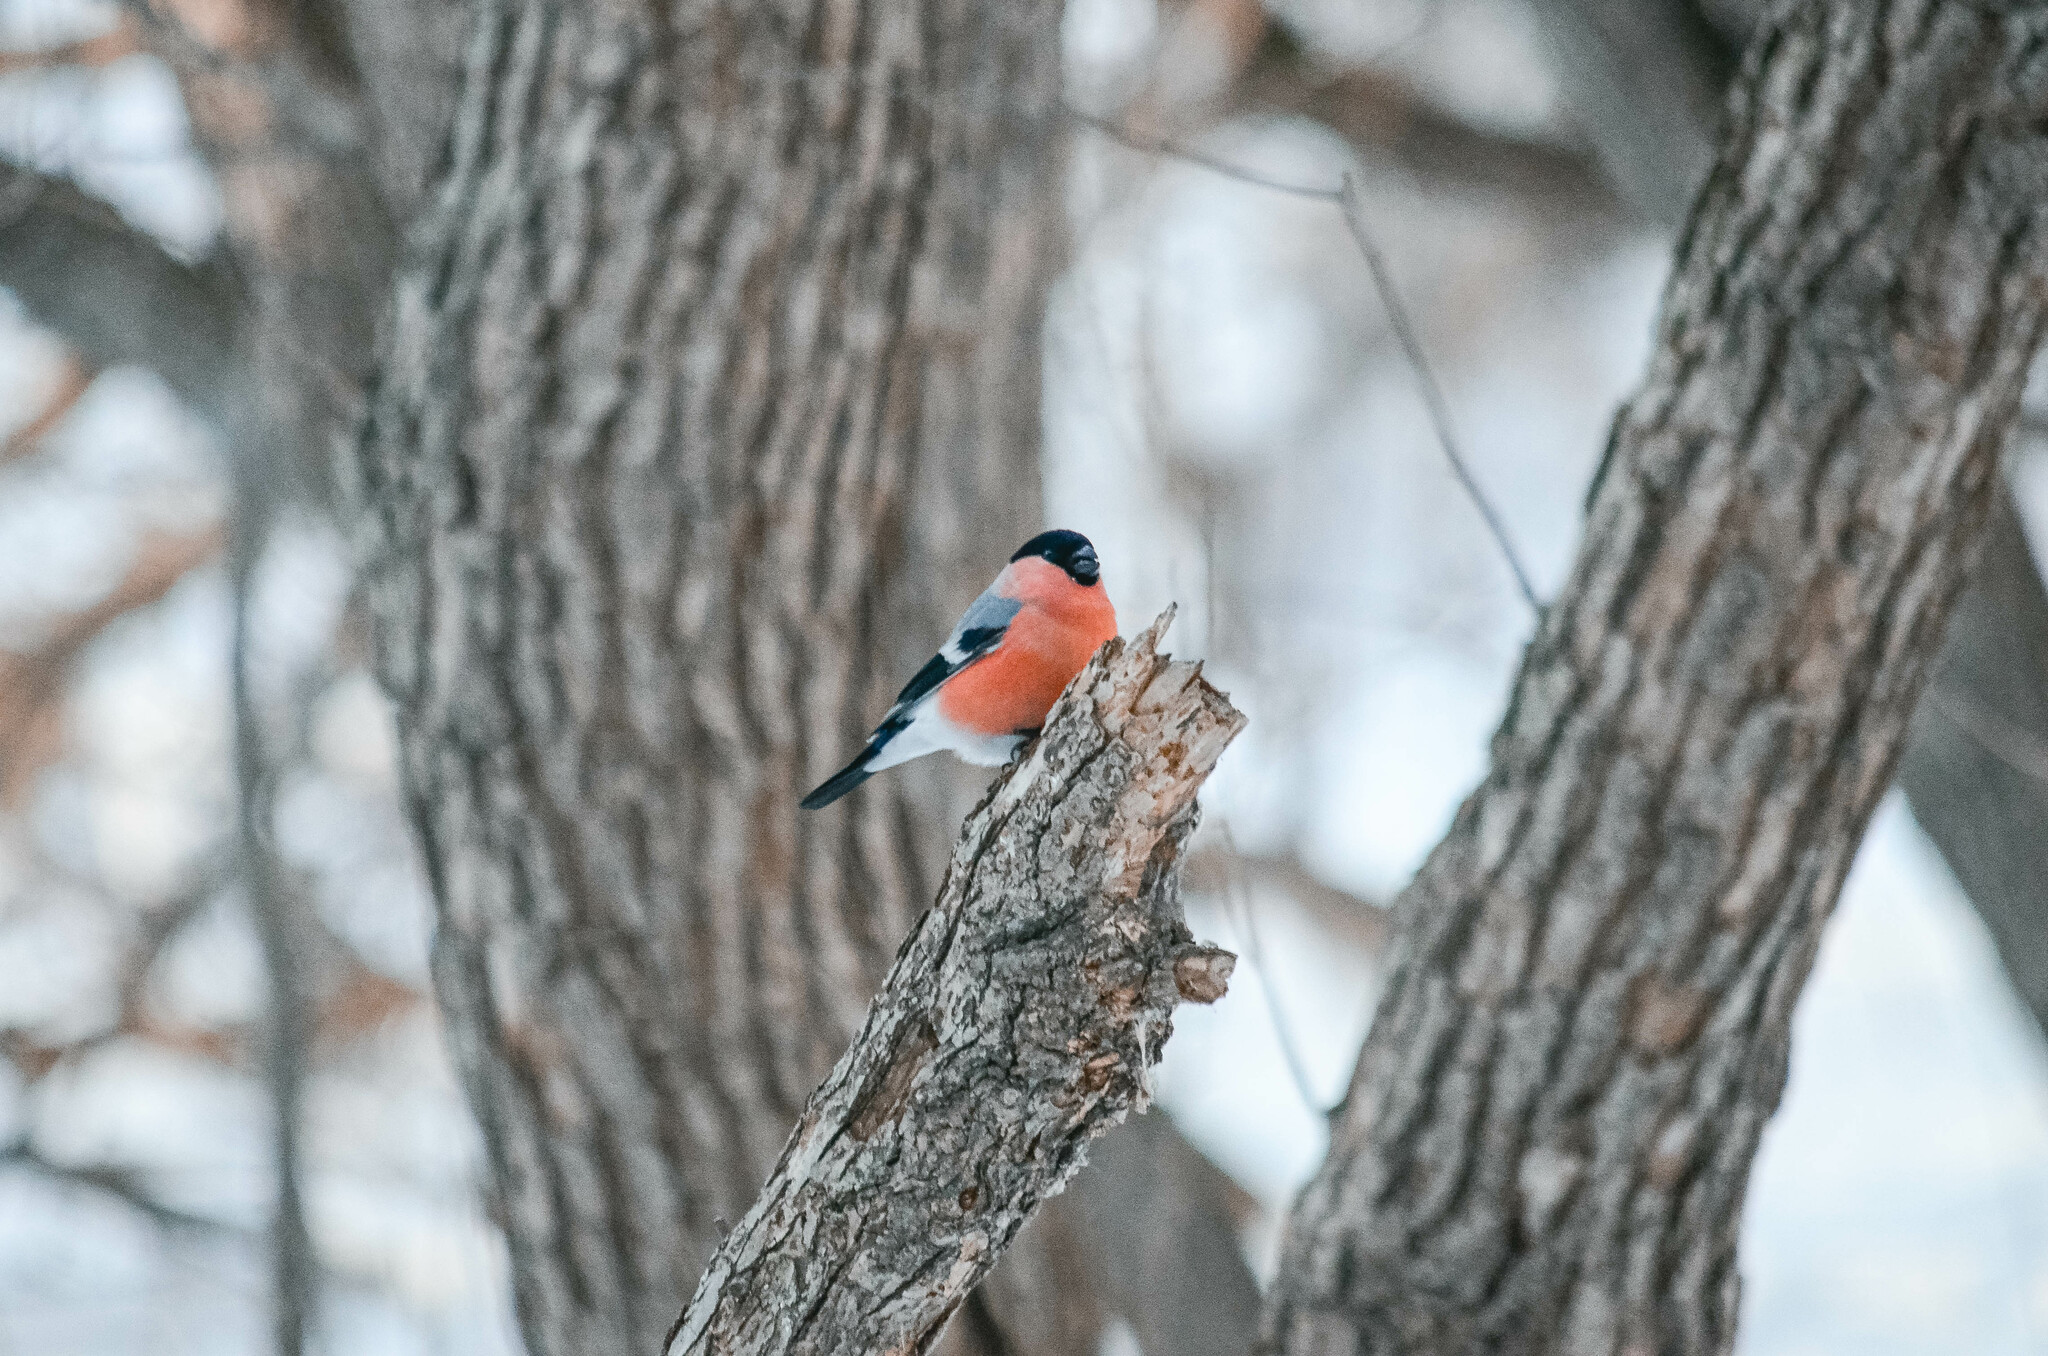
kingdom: Animalia
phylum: Chordata
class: Aves
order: Passeriformes
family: Fringillidae
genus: Pyrrhula
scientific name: Pyrrhula pyrrhula
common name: Eurasian bullfinch
